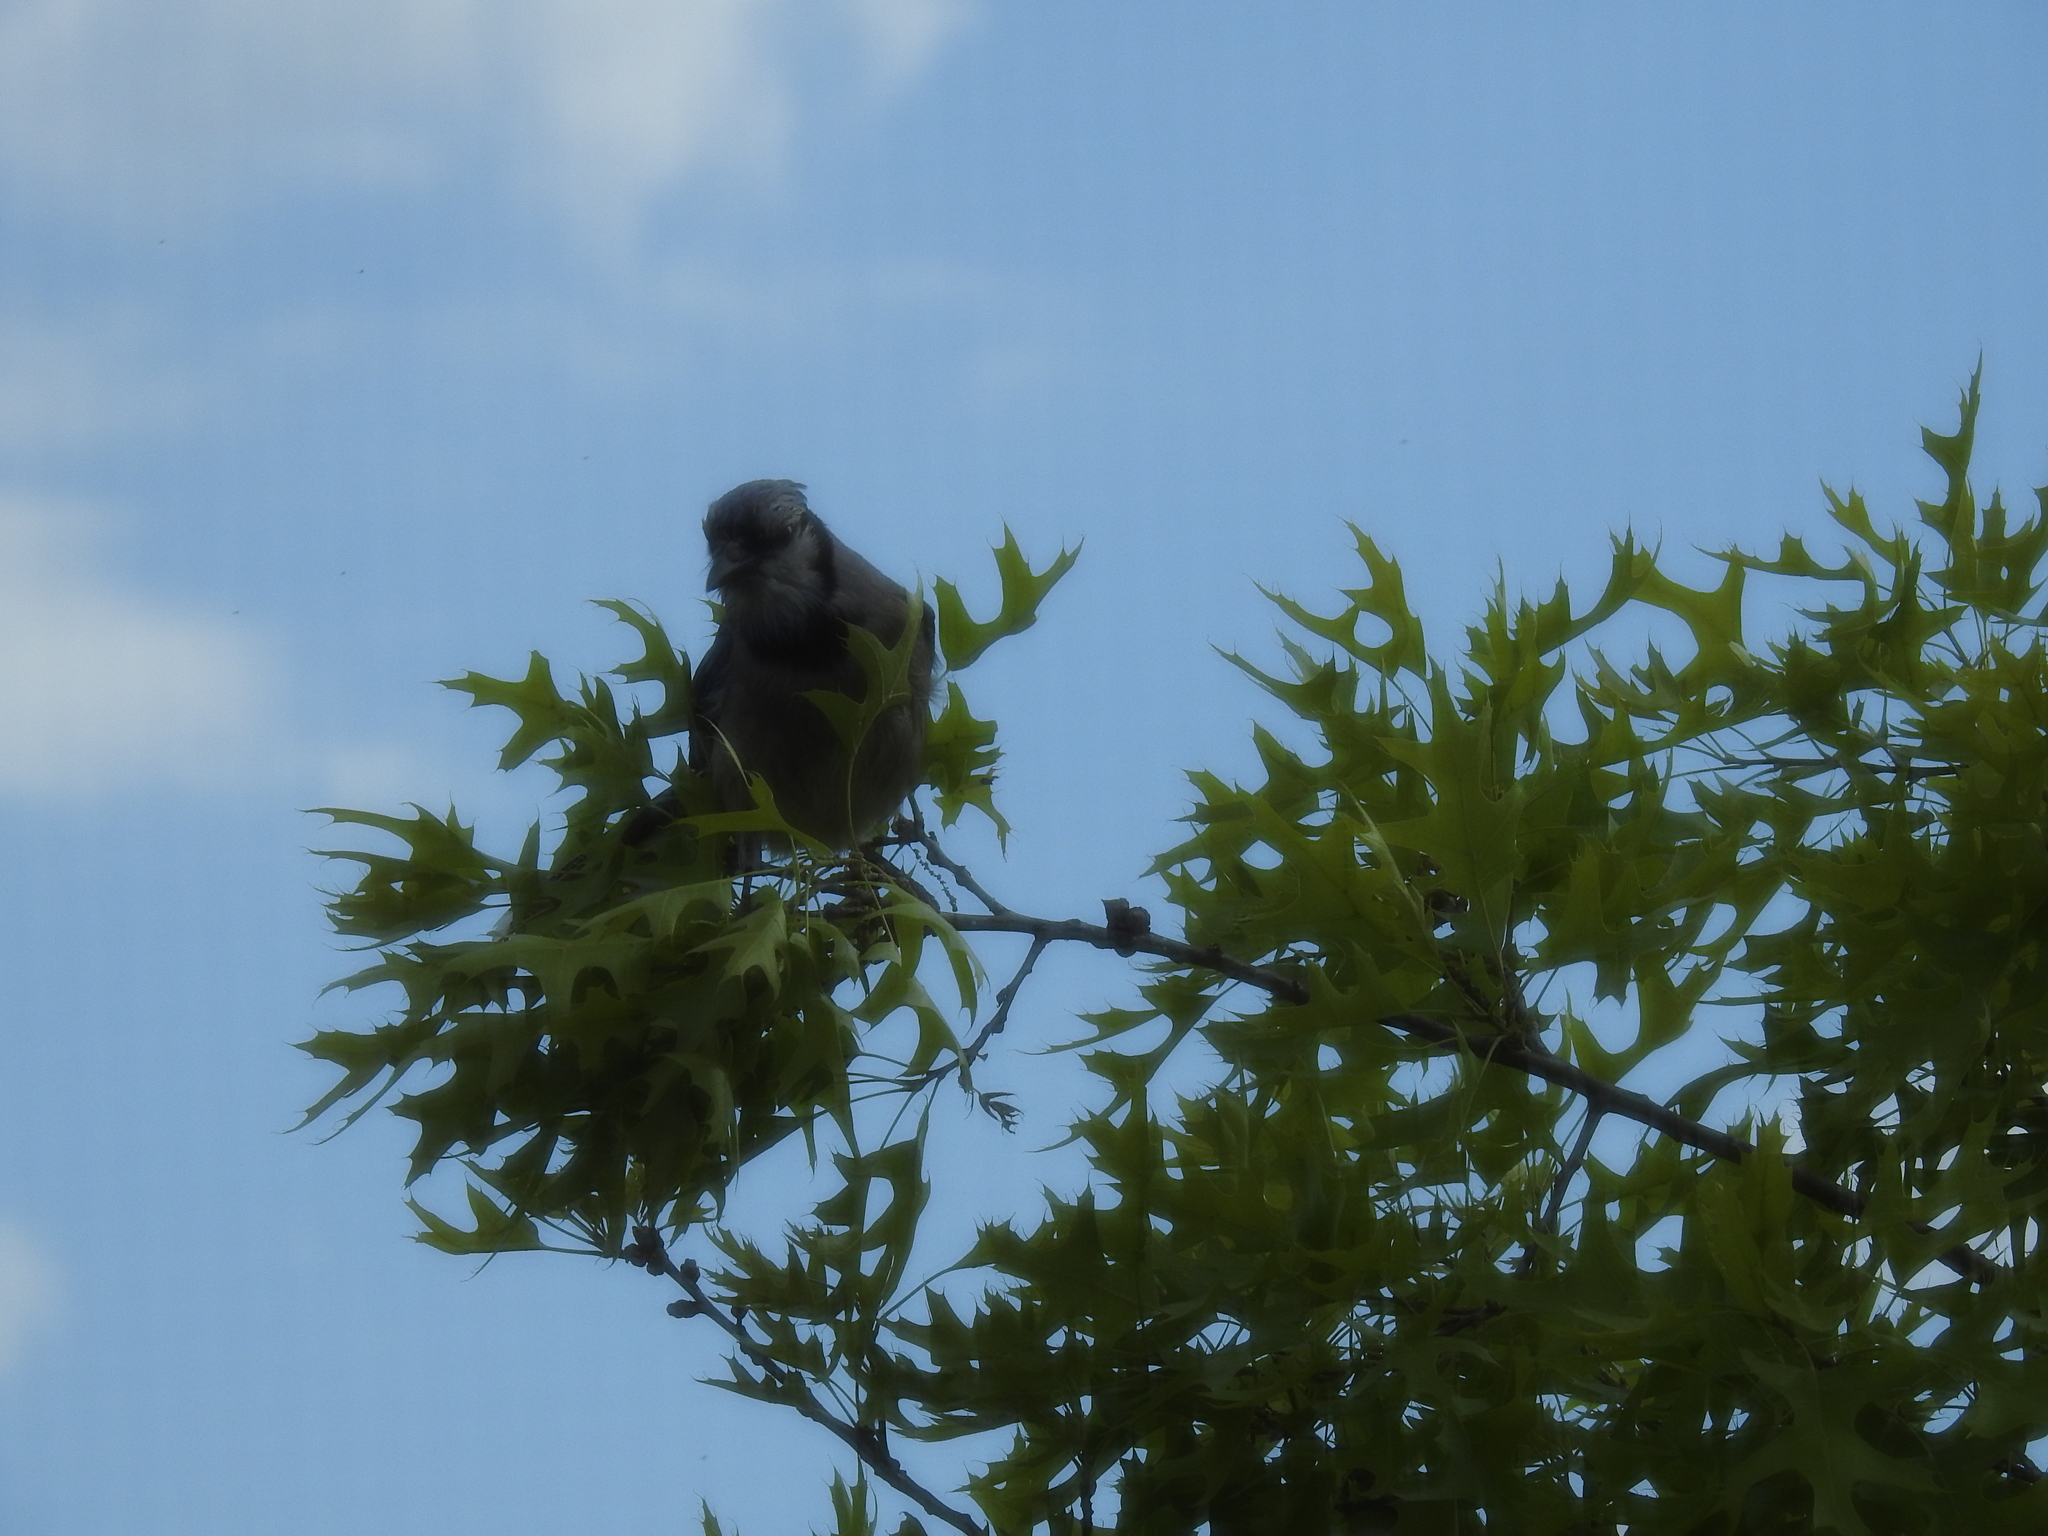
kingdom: Animalia
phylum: Chordata
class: Aves
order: Passeriformes
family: Corvidae
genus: Cyanocitta
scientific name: Cyanocitta cristata
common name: Blue jay
